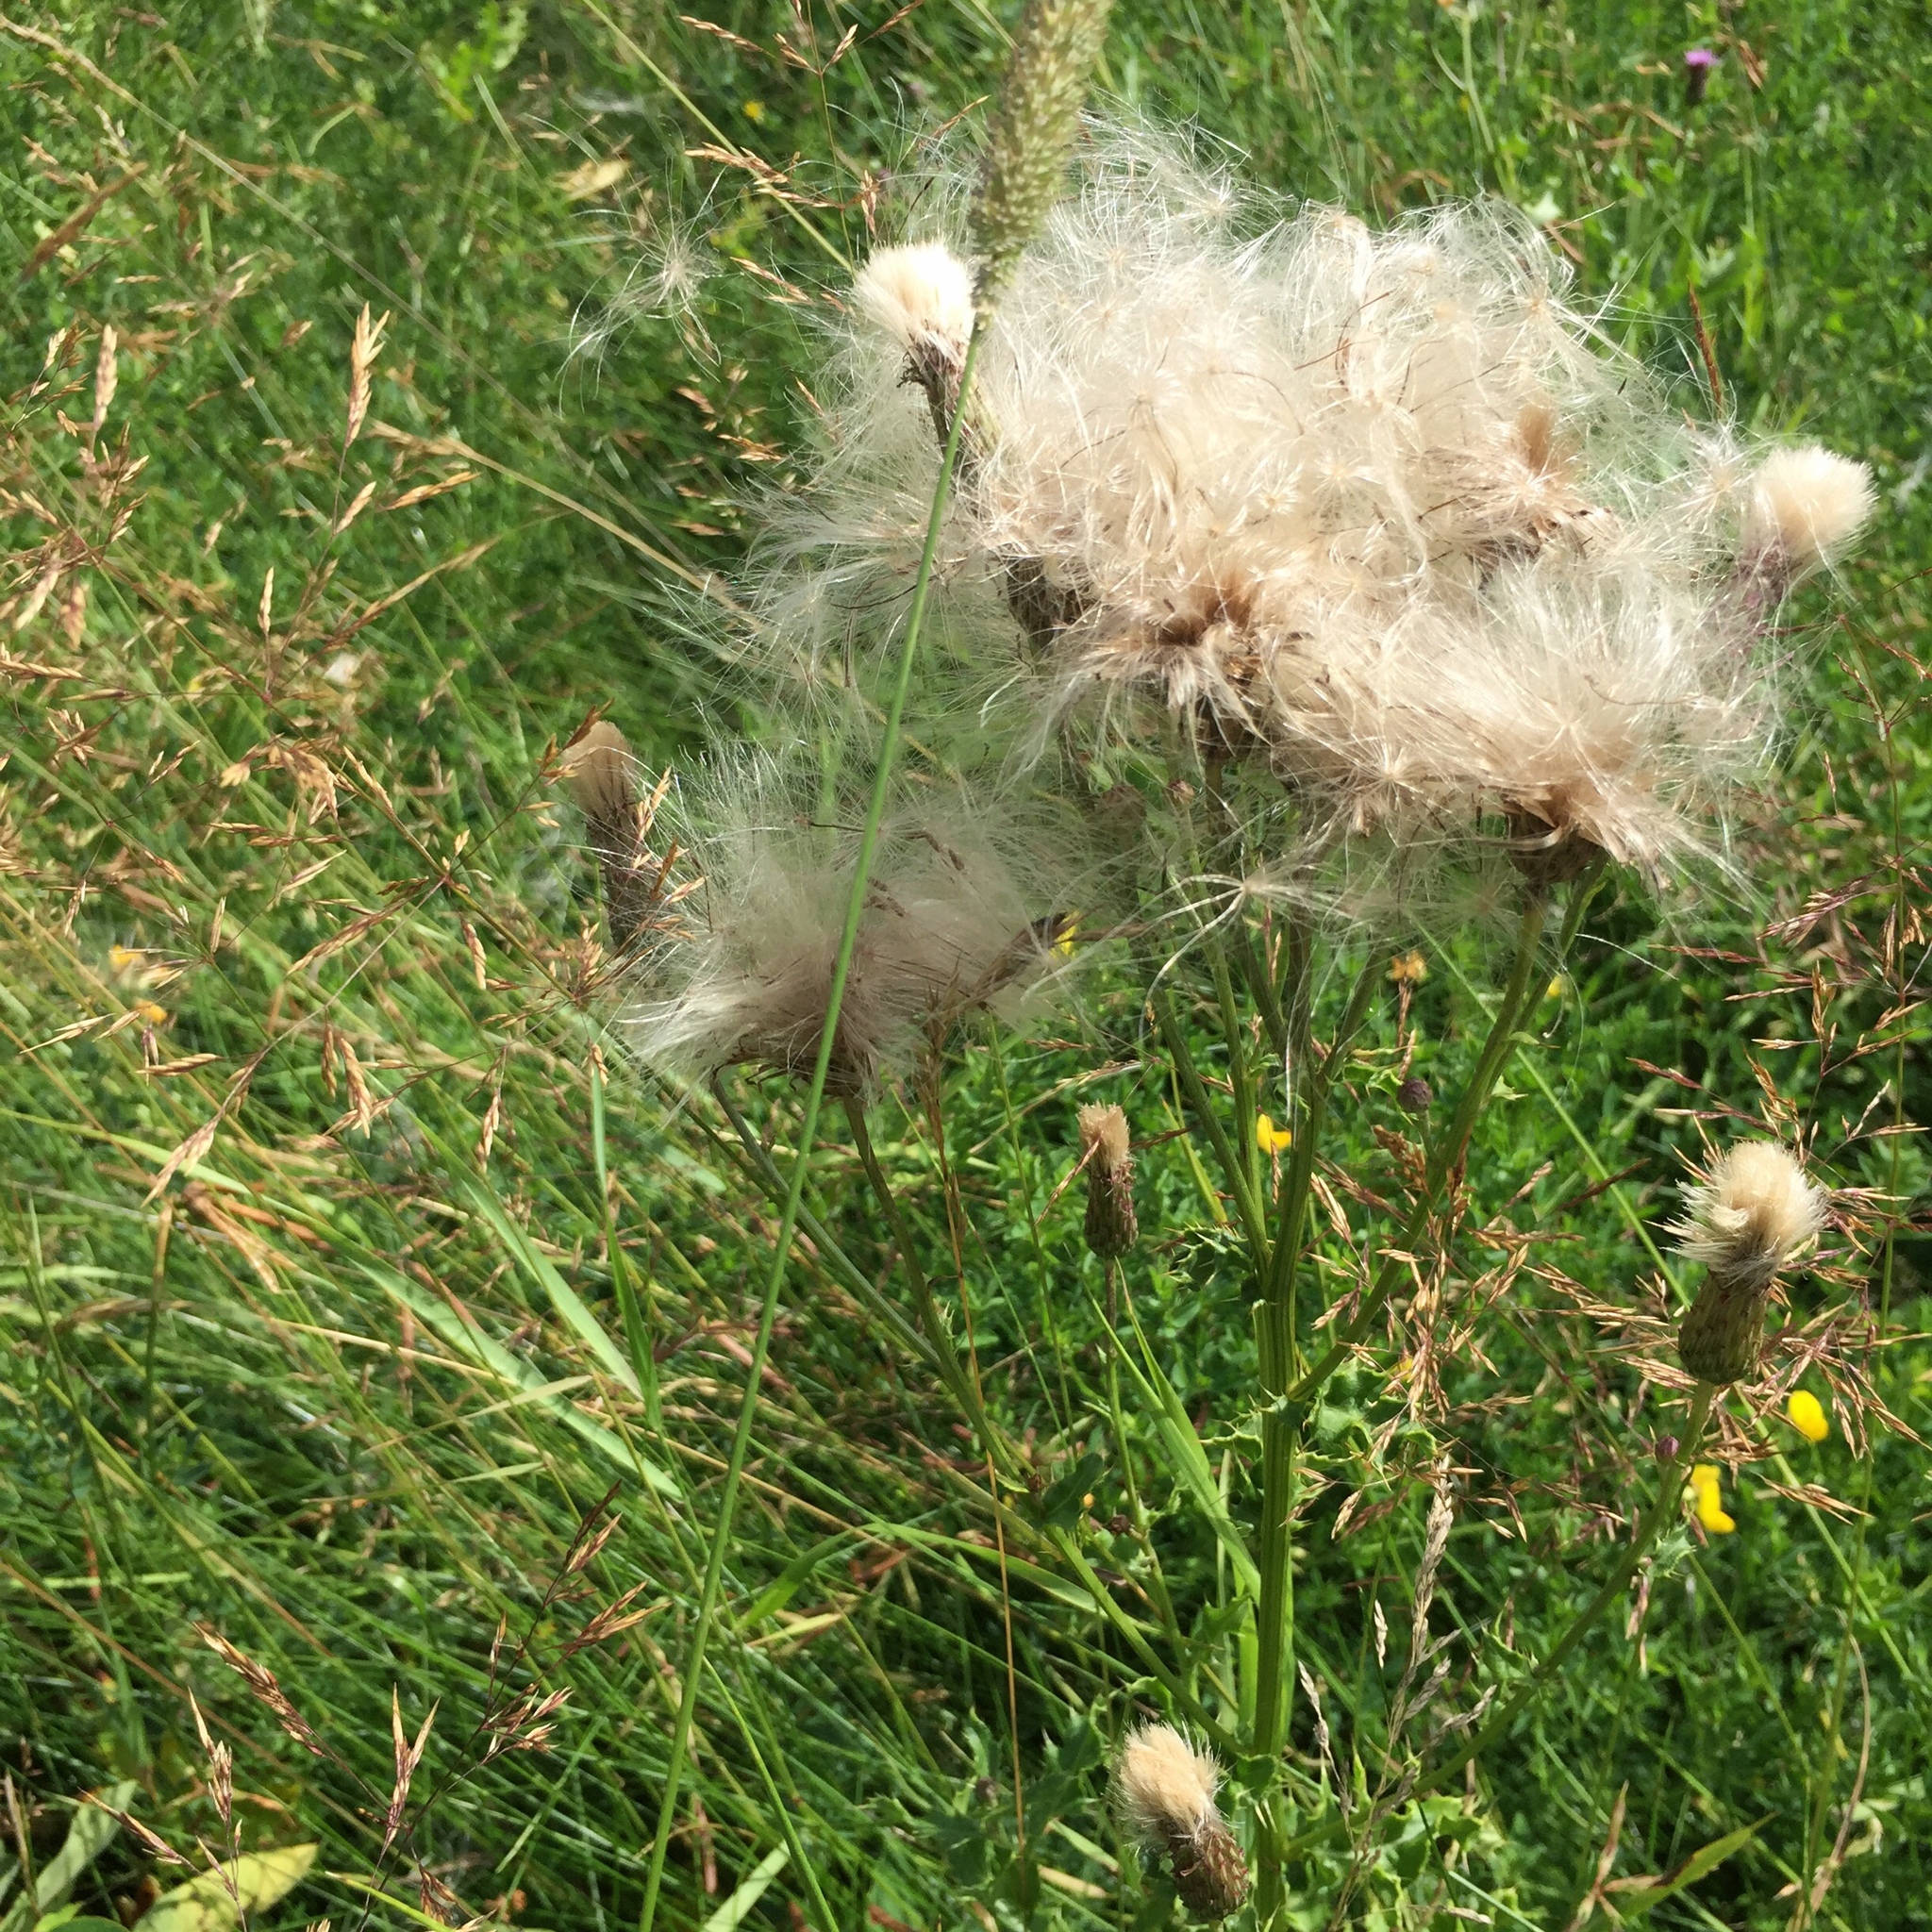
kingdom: Plantae
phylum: Tracheophyta
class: Magnoliopsida
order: Asterales
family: Asteraceae
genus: Cirsium
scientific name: Cirsium arvense
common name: Creeping thistle
